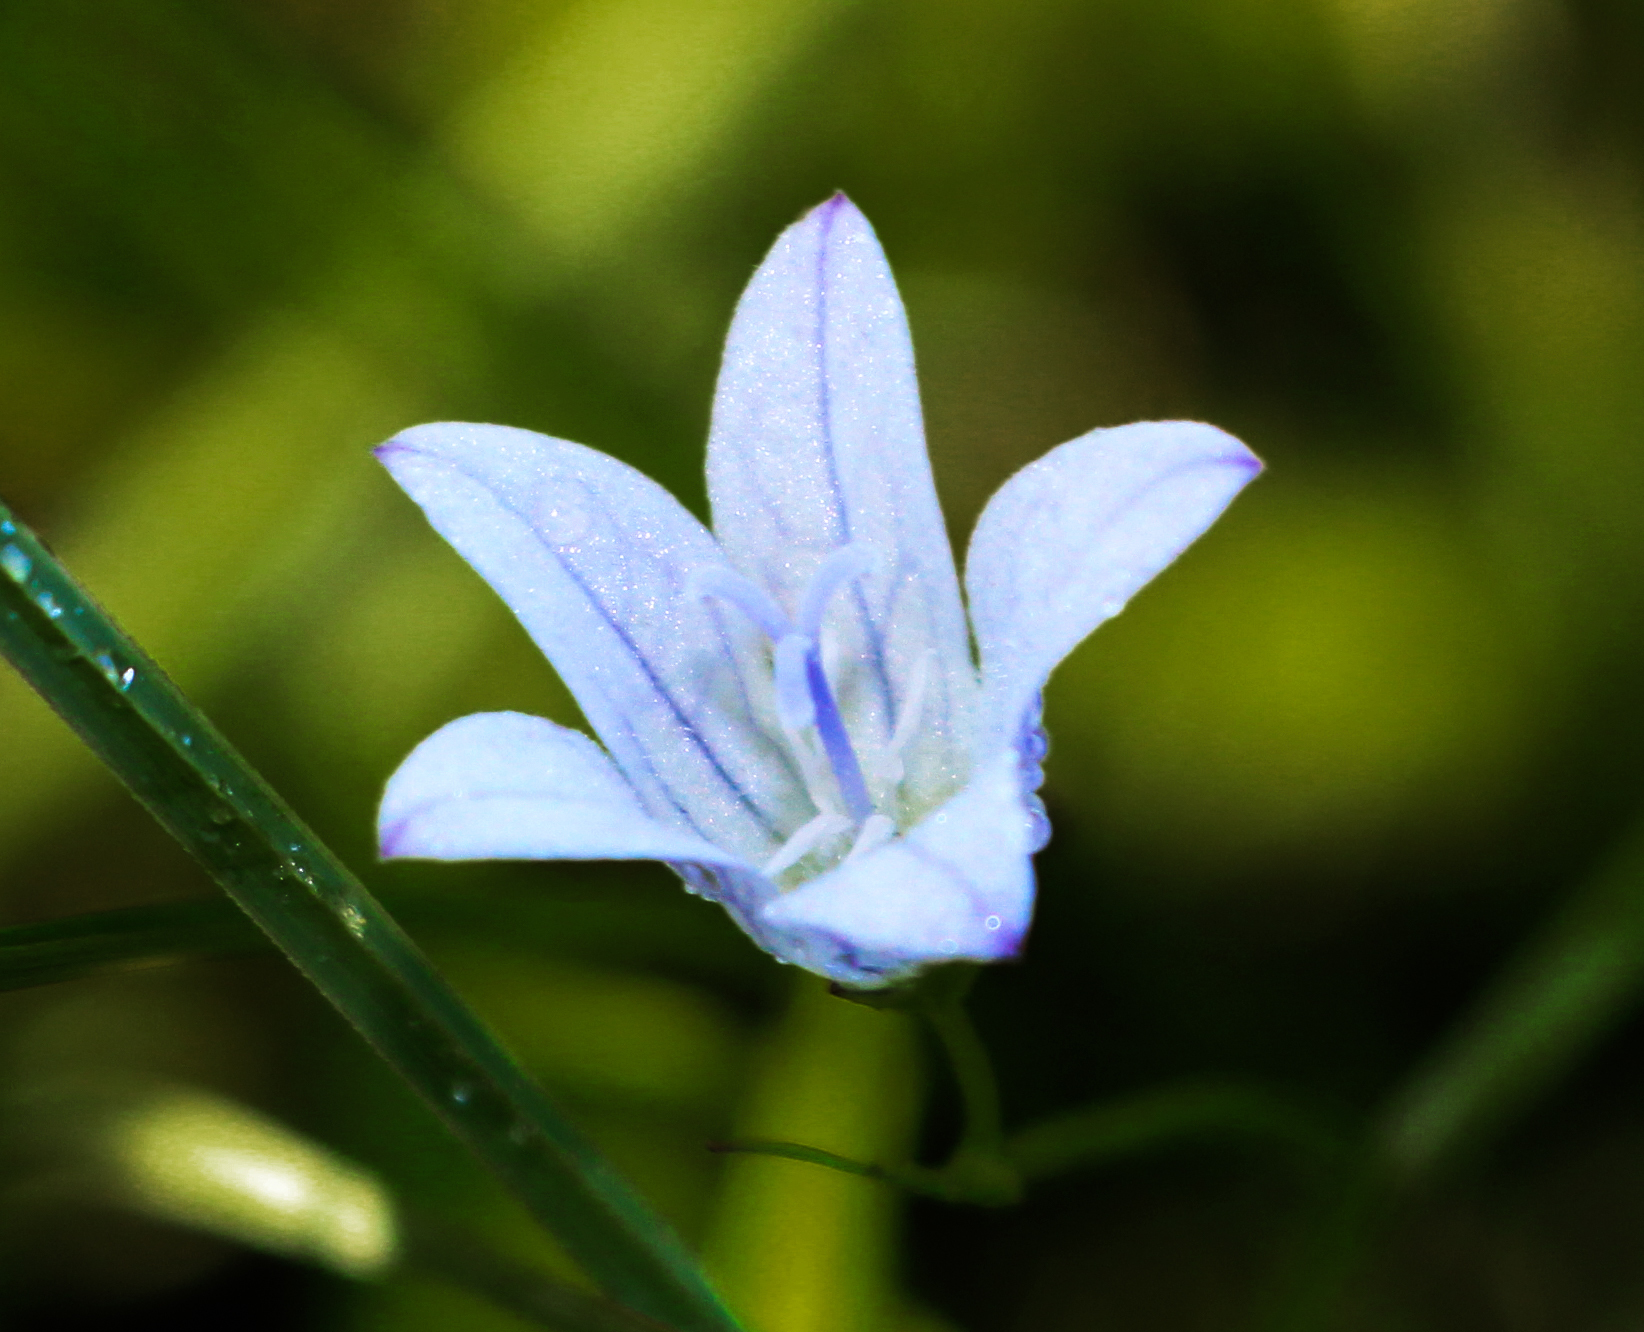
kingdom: Plantae
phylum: Tracheophyta
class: Magnoliopsida
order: Asterales
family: Campanulaceae
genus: Palustricodon
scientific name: Palustricodon aparinoides
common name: Bedstraw bellflower
